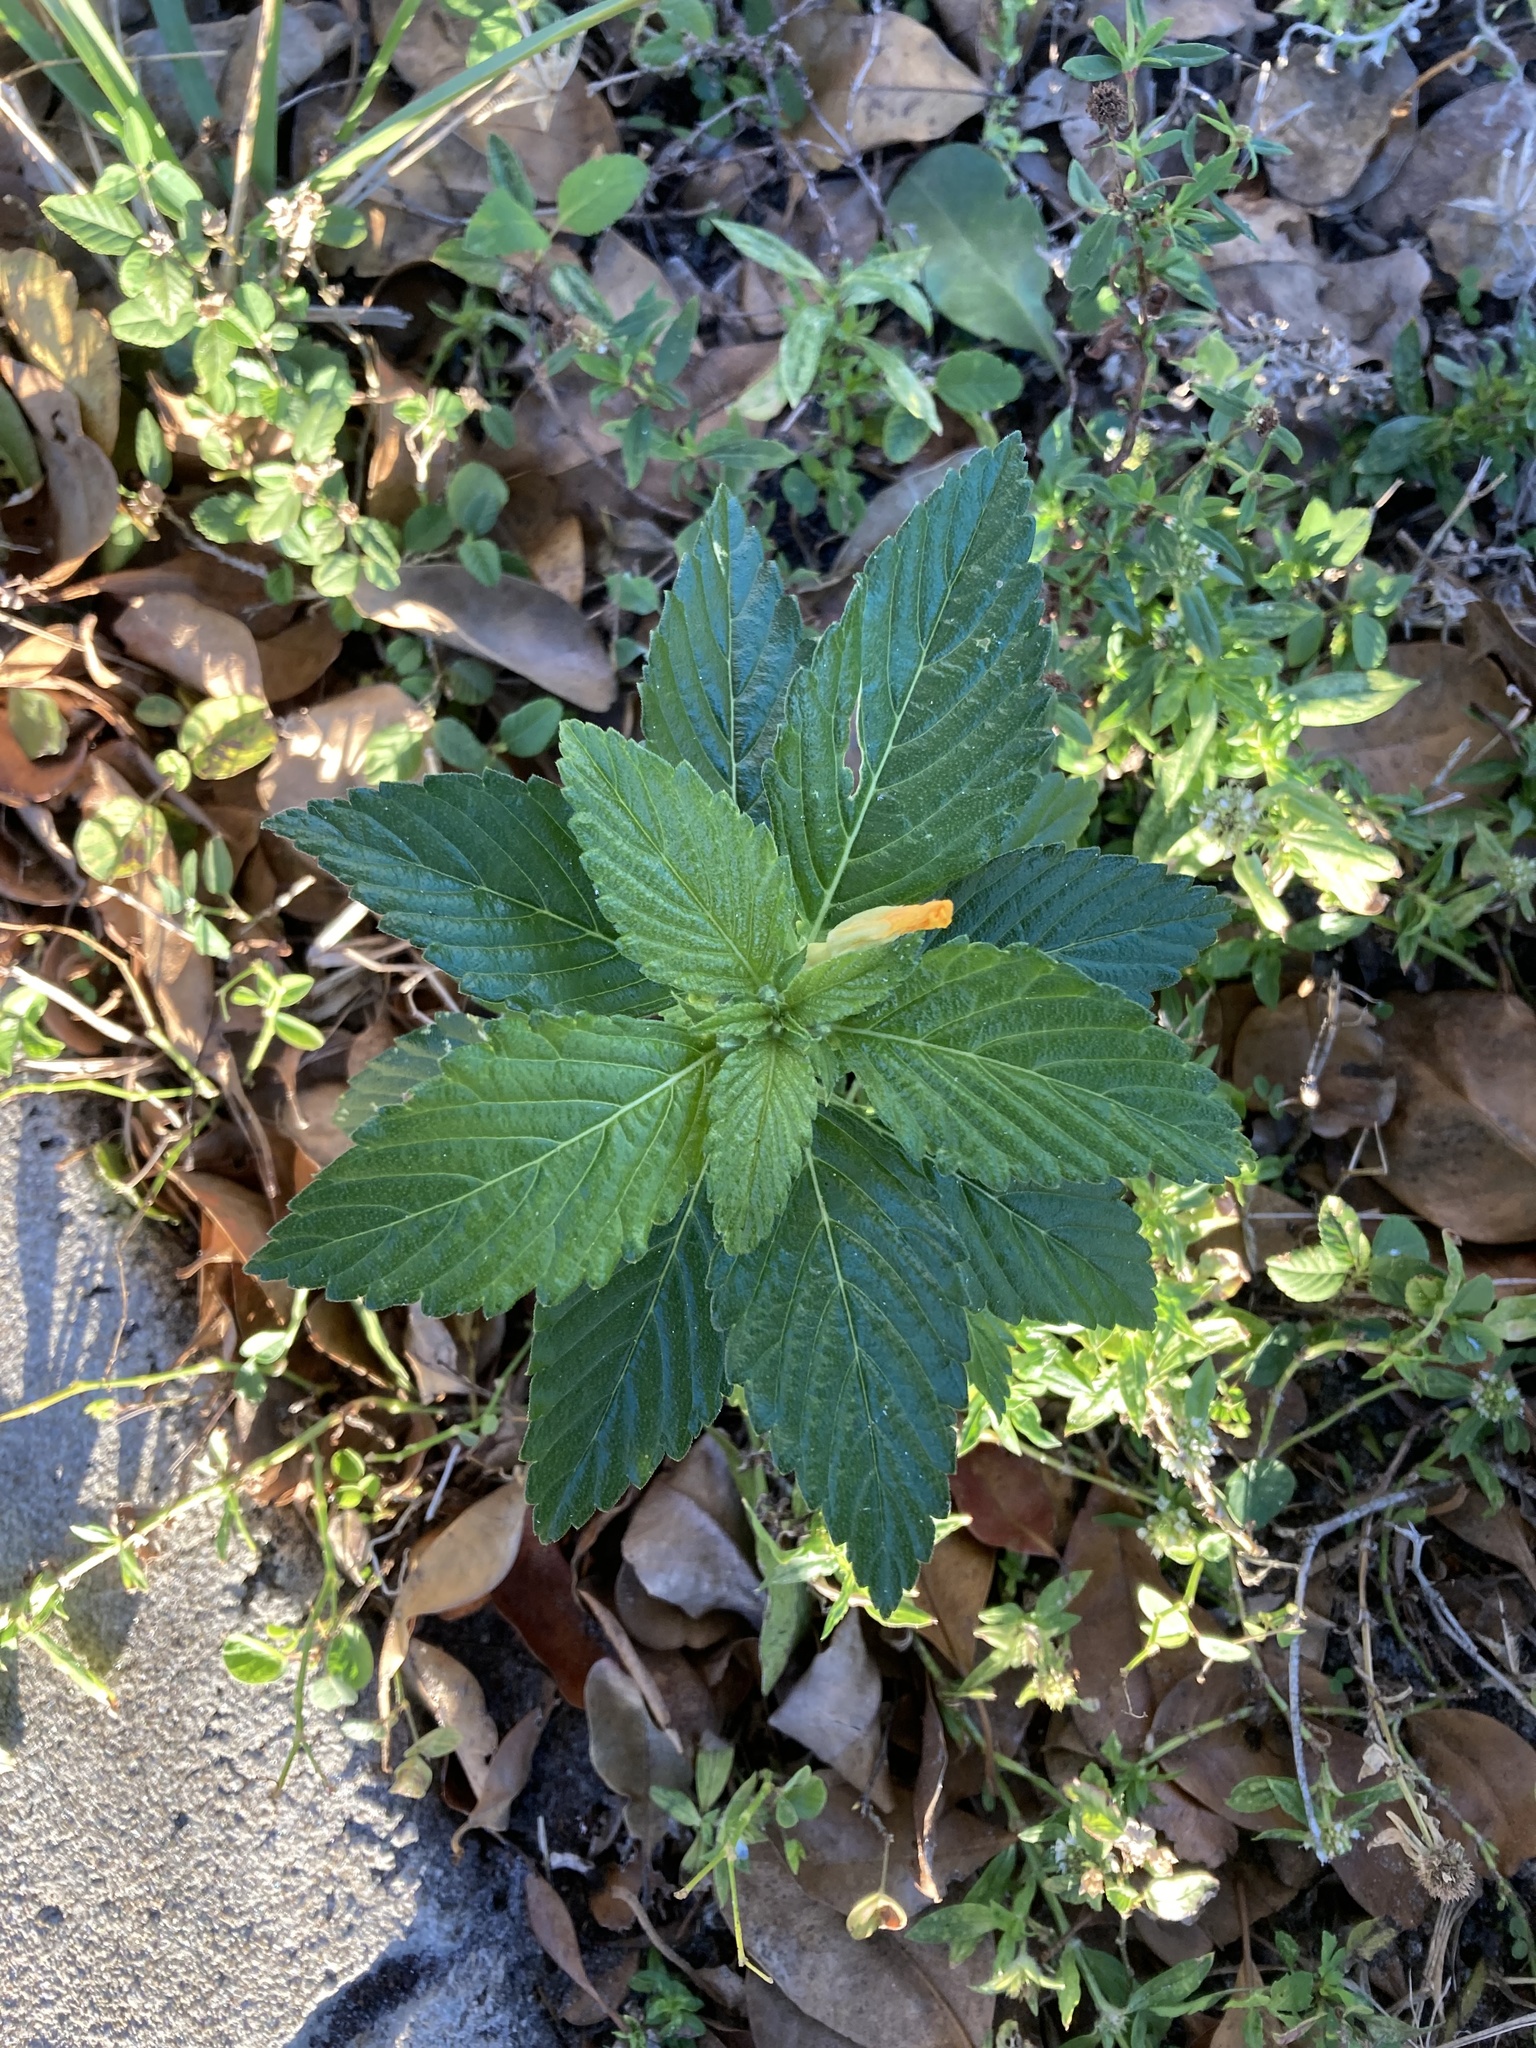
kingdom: Plantae
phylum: Tracheophyta
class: Magnoliopsida
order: Malpighiales
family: Turneraceae
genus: Turnera
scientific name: Turnera ulmifolia
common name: Ramgoat dashalong
